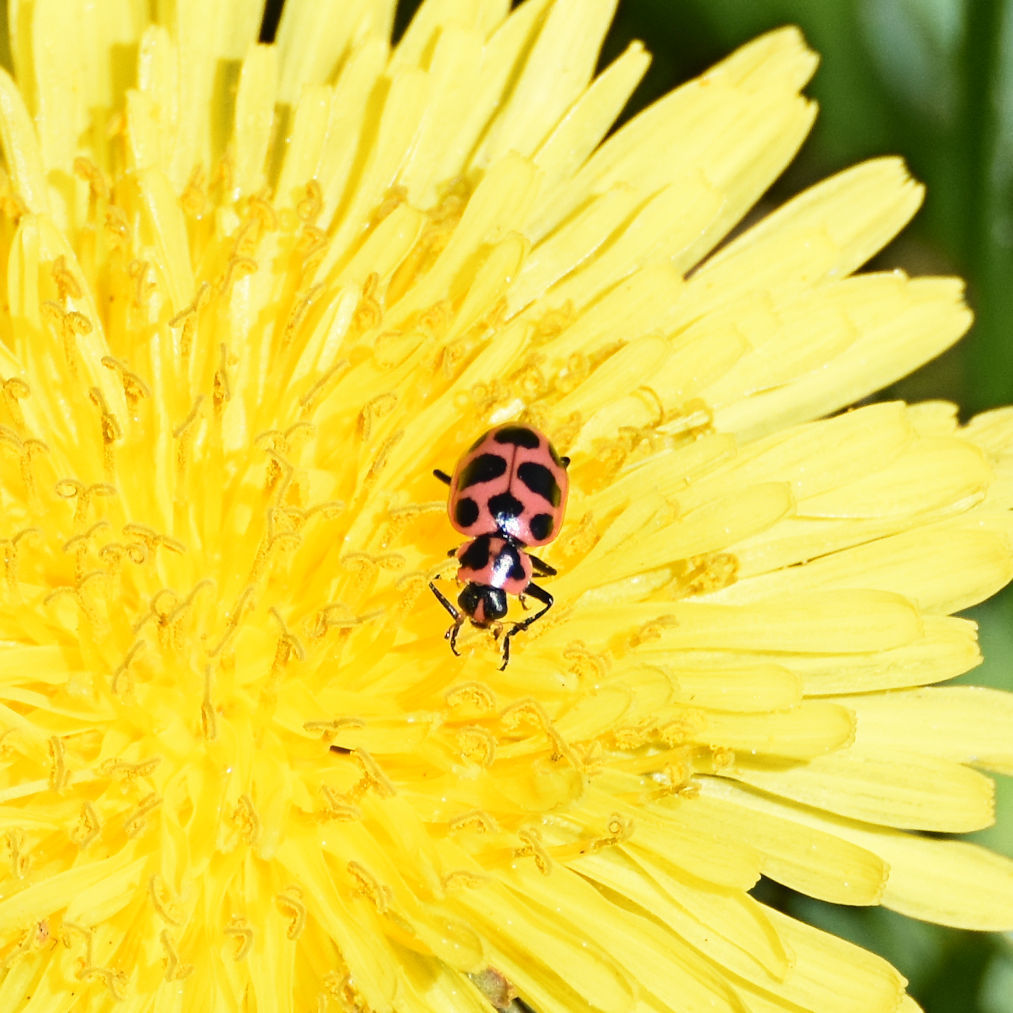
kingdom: Animalia
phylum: Arthropoda
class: Insecta
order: Coleoptera
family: Coccinellidae
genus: Coleomegilla
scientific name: Coleomegilla maculata
